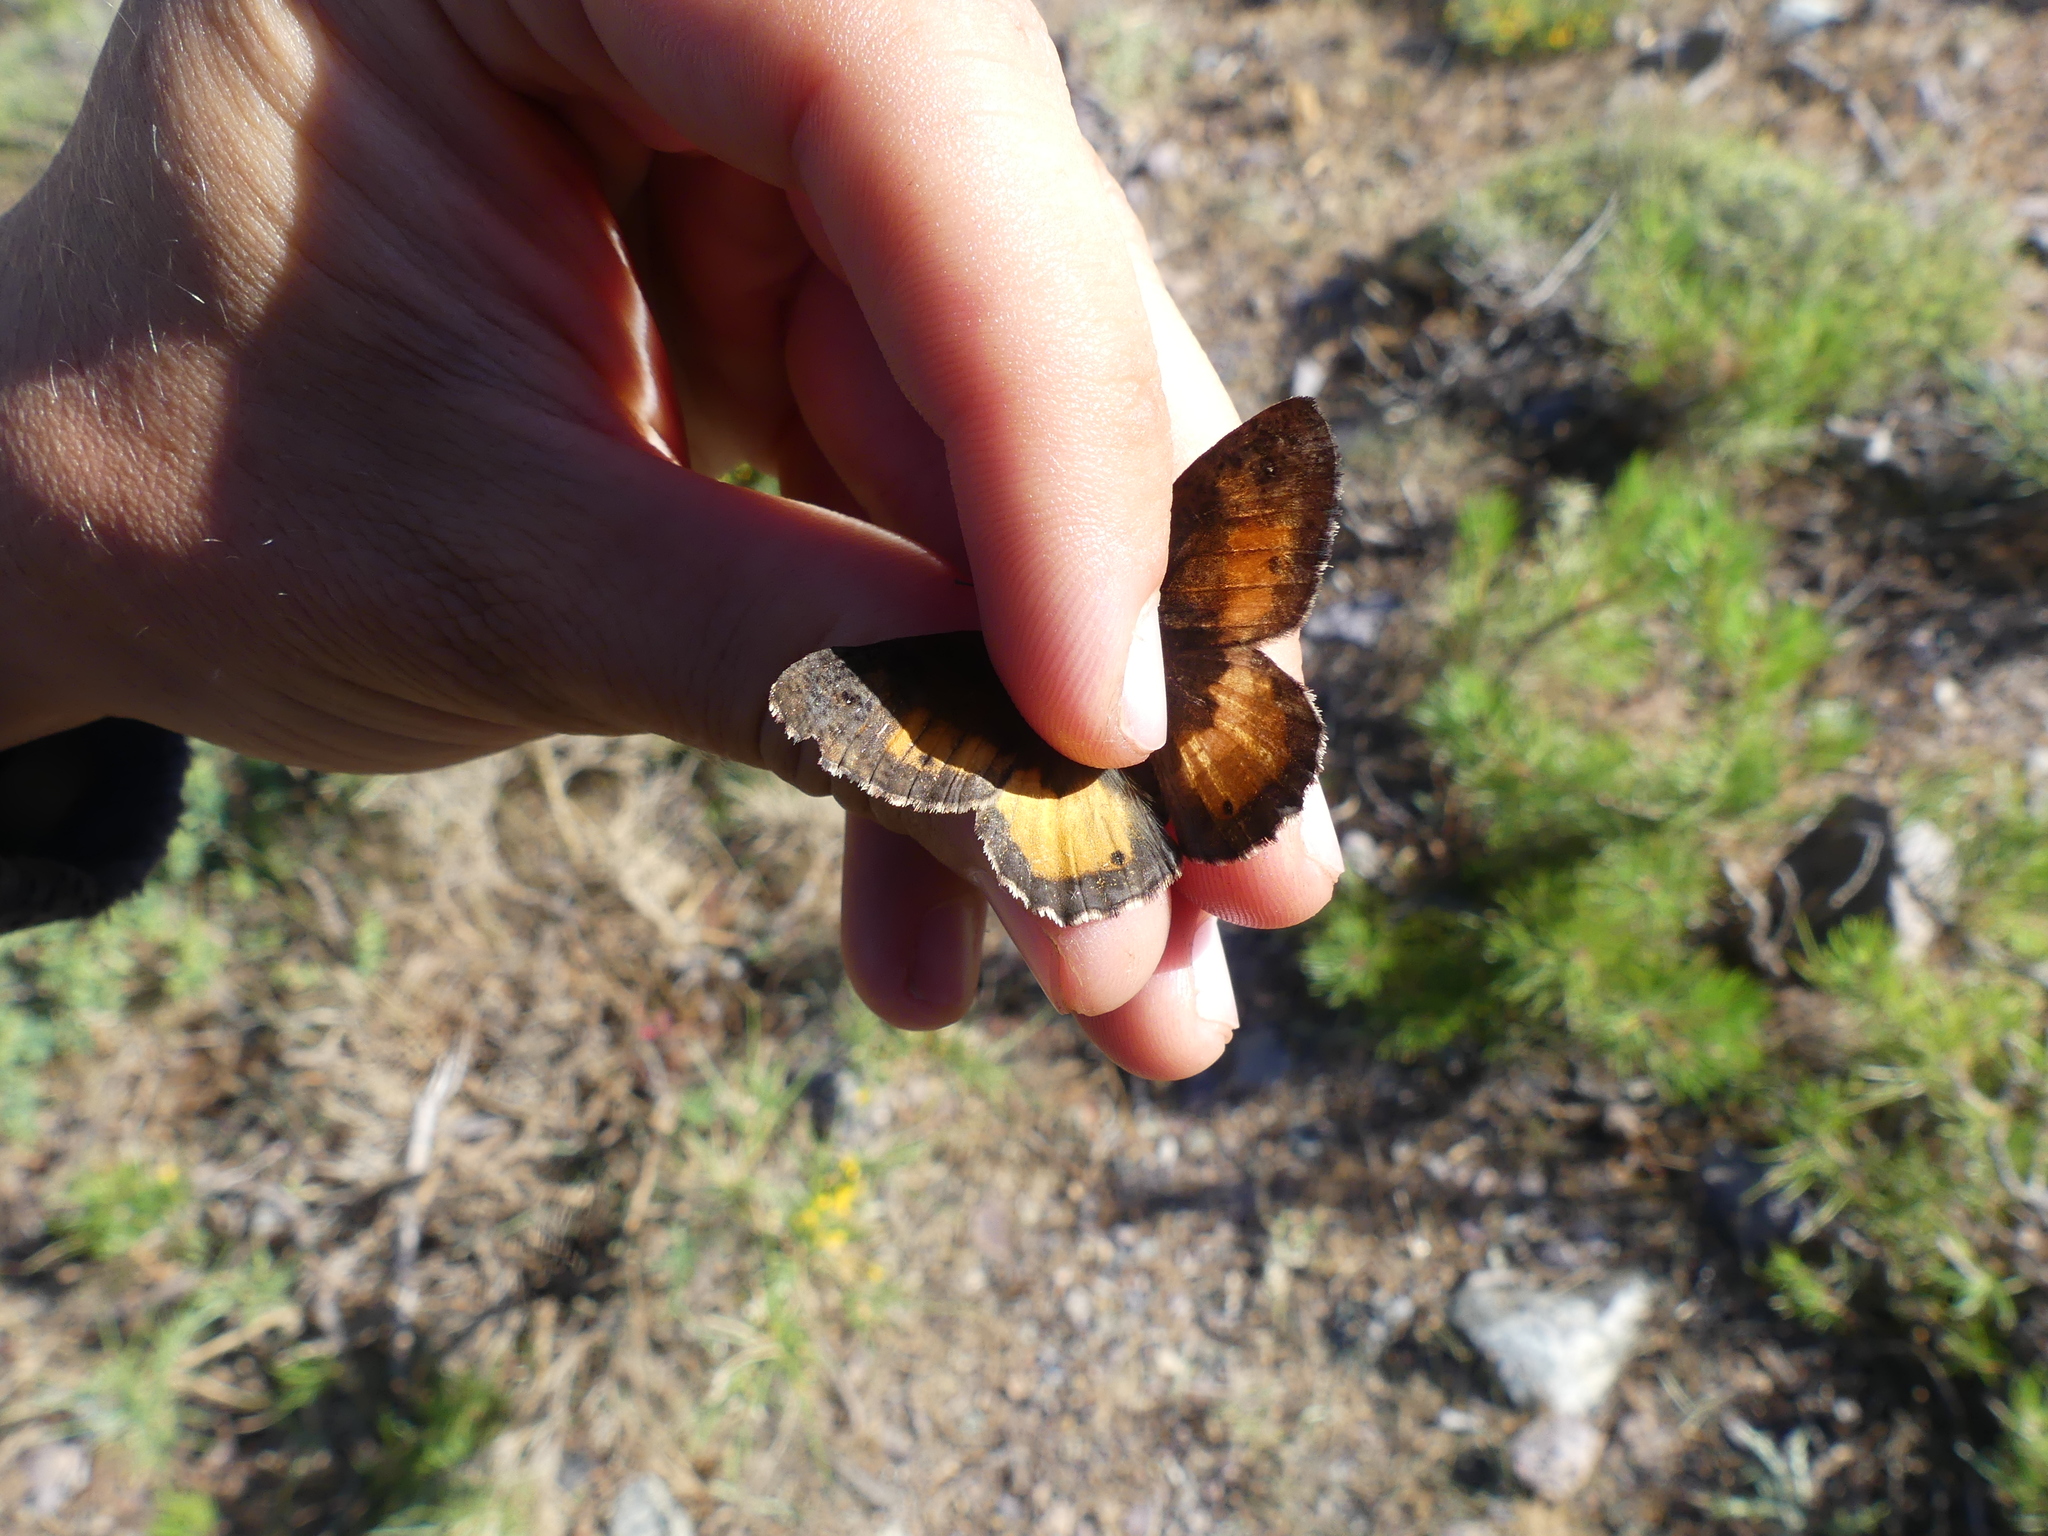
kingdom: Animalia
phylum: Arthropoda
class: Insecta
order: Lepidoptera
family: Nymphalidae
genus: Hipparchia
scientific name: Hipparchia neomiris
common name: Corsican grayling
